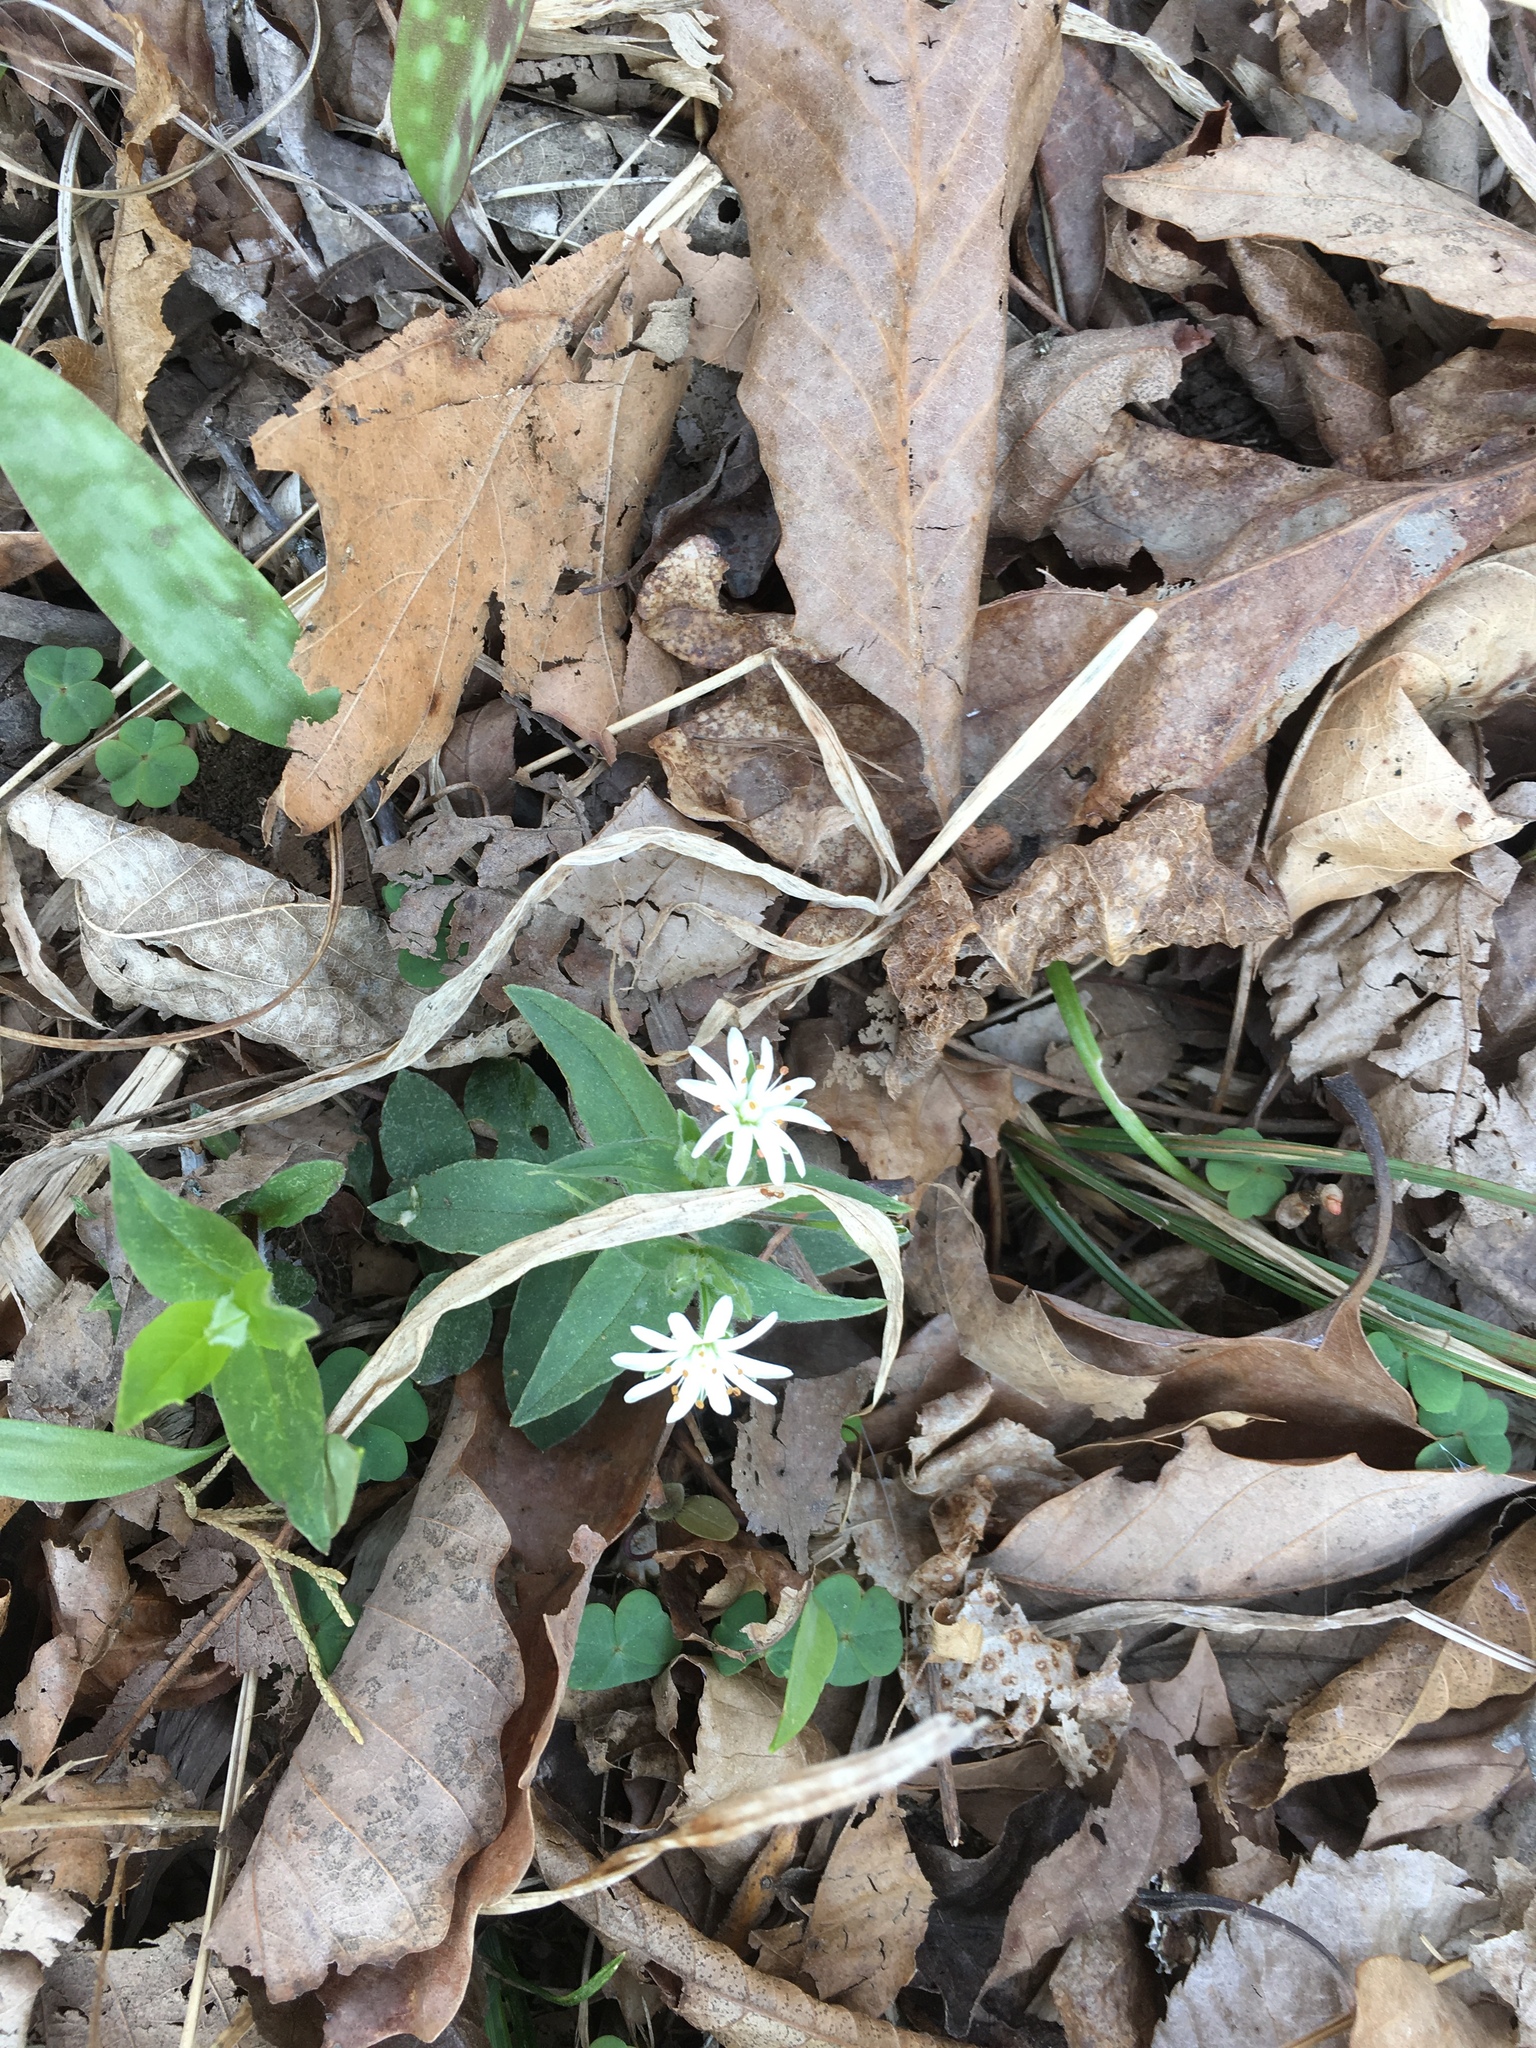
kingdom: Plantae
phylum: Tracheophyta
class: Magnoliopsida
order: Caryophyllales
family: Caryophyllaceae
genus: Stellaria
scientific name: Stellaria pubera
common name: Star chickweed
